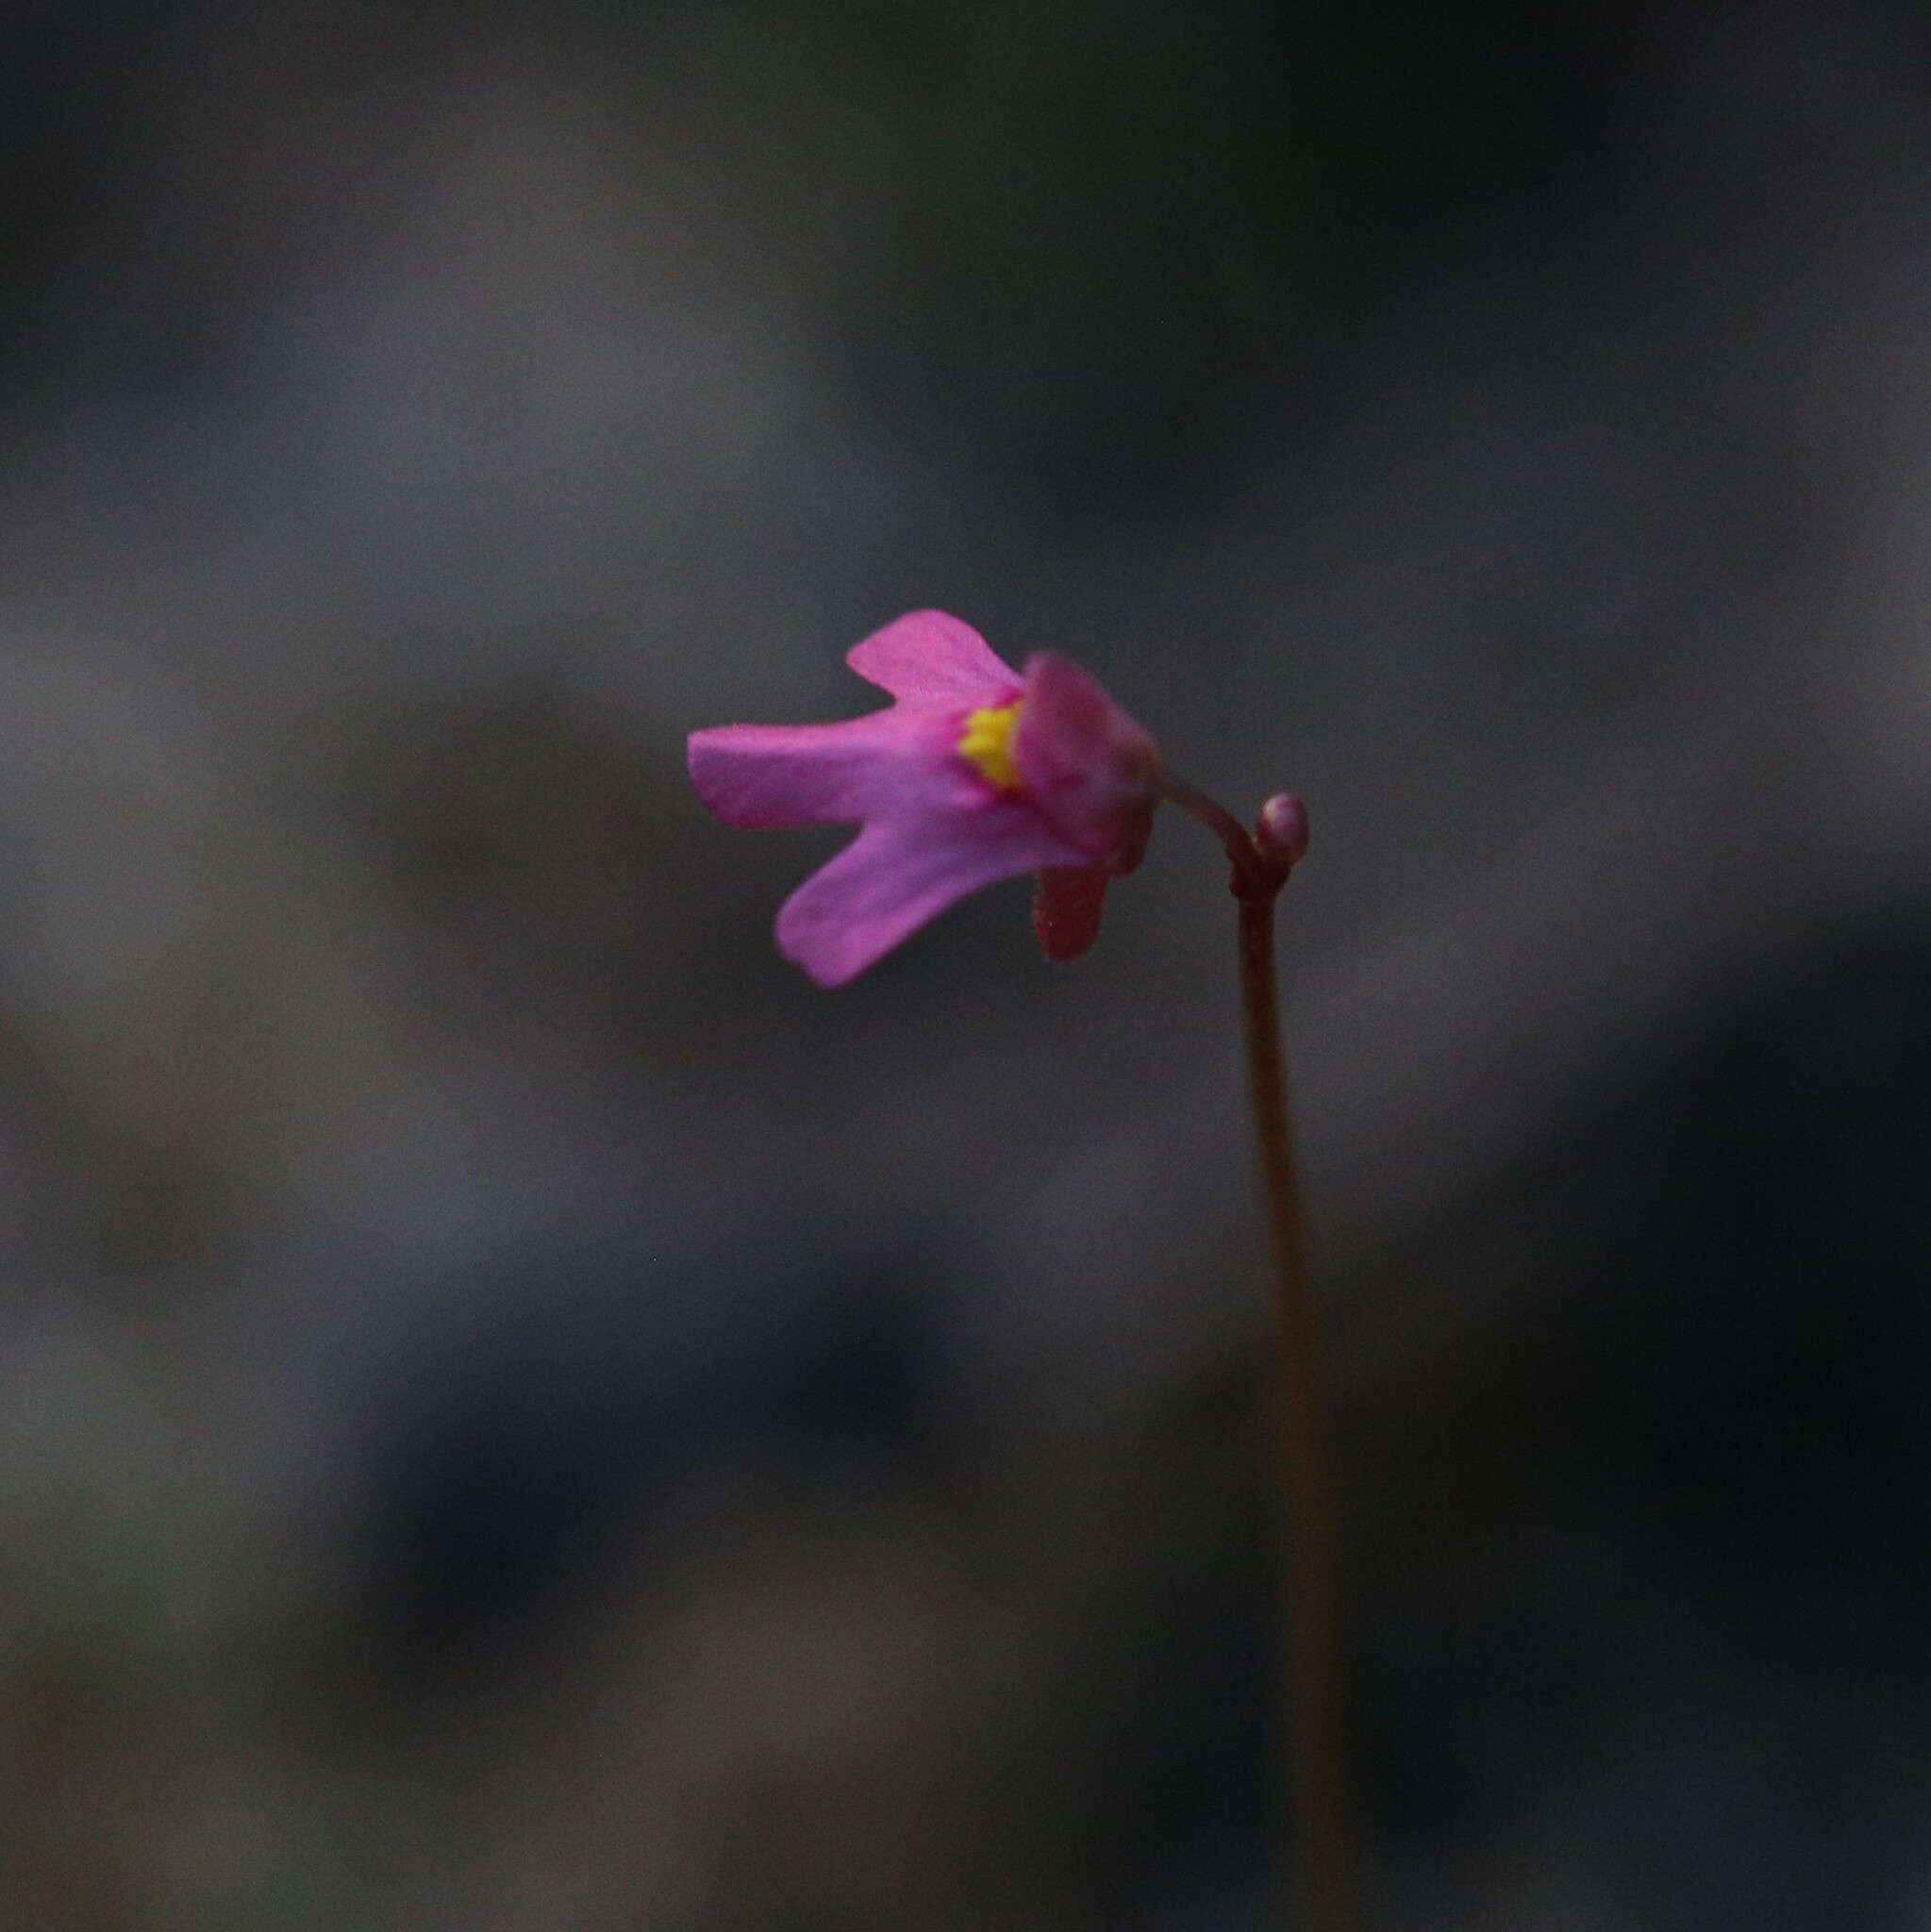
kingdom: Plantae
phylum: Tracheophyta
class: Magnoliopsida
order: Lamiales
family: Lentibulariaceae
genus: Utricularia
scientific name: Utricularia tenella
